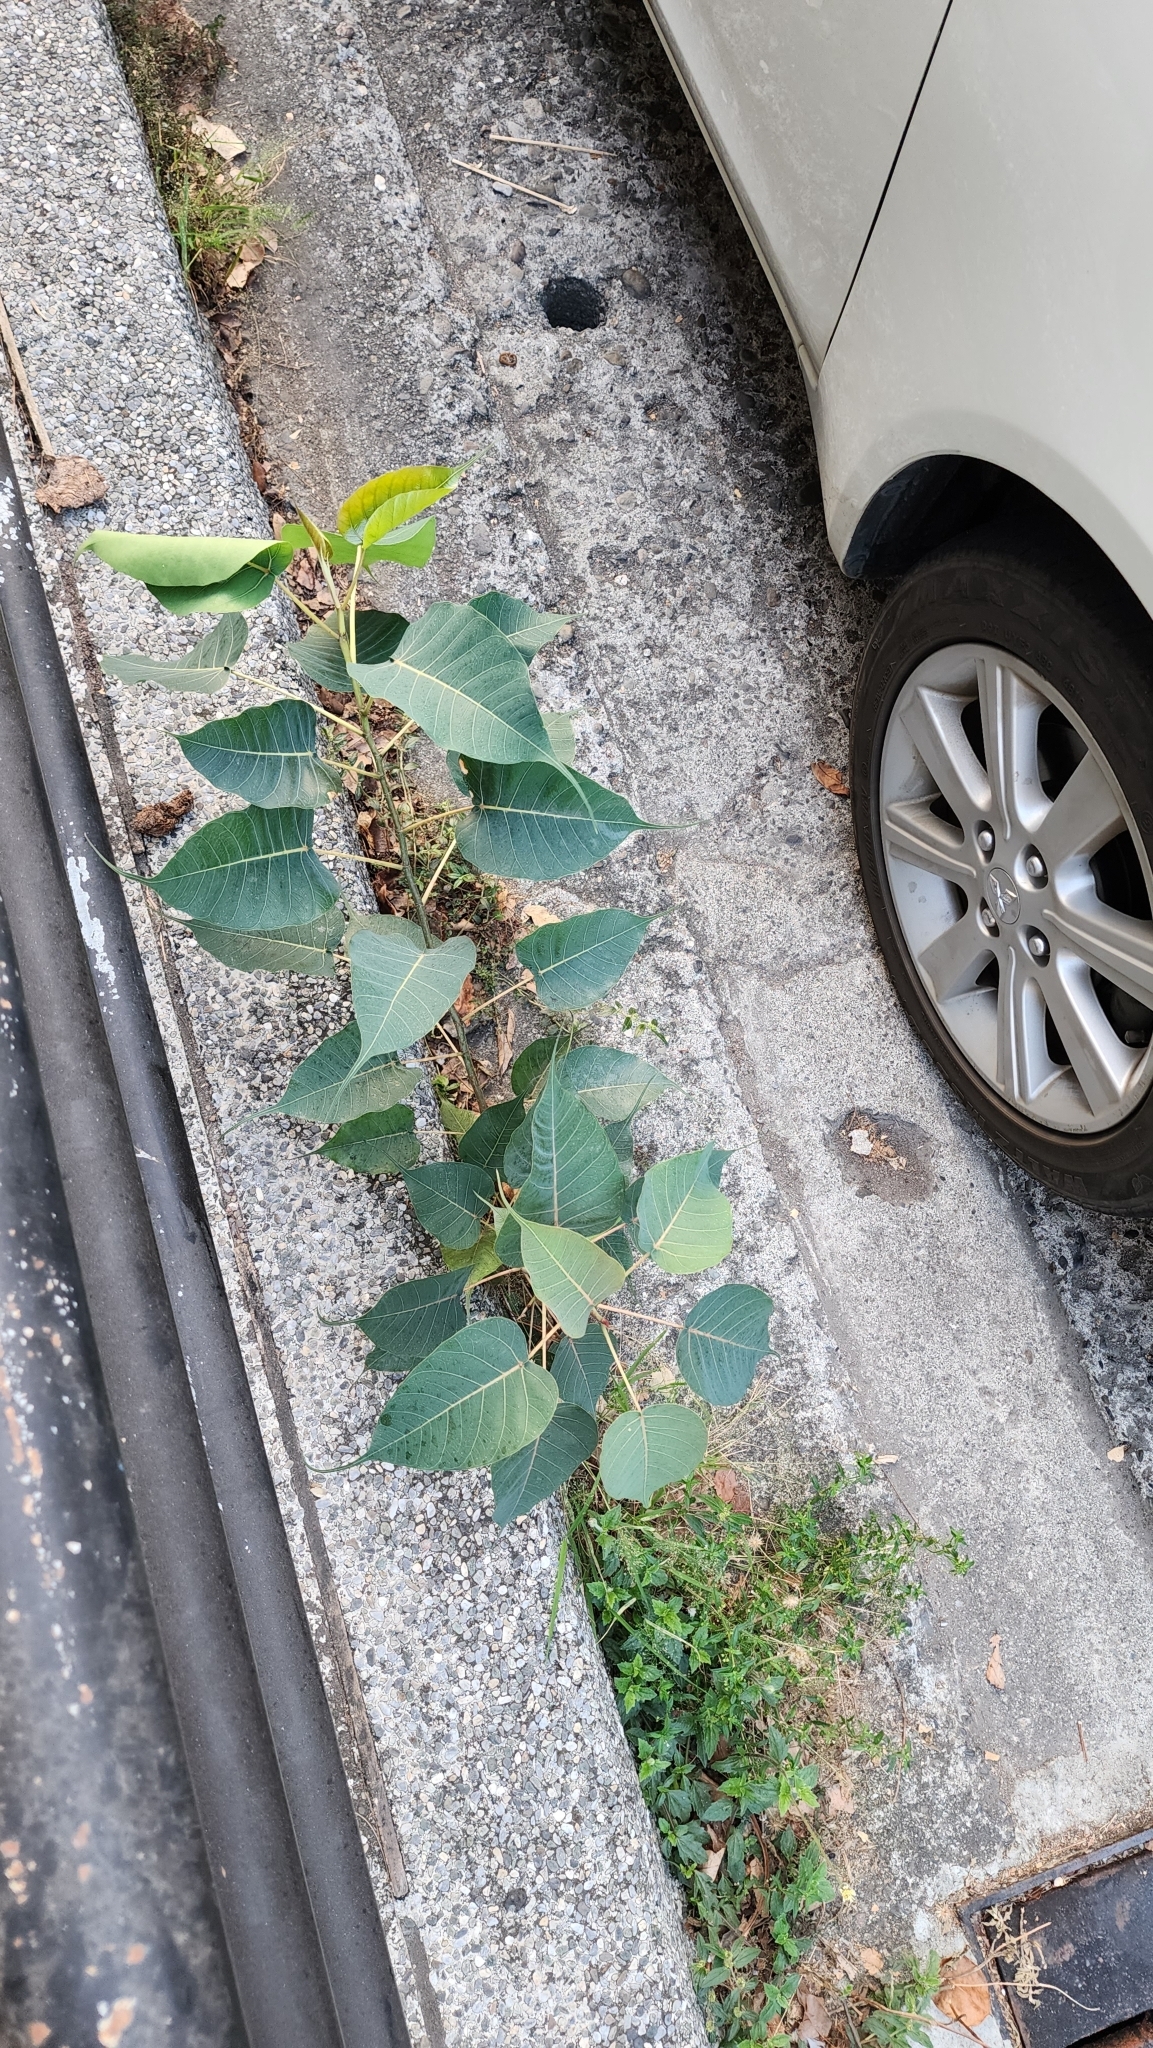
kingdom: Plantae
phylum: Tracheophyta
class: Magnoliopsida
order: Rosales
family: Moraceae
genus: Ficus
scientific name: Ficus religiosa
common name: Bodhi tree
